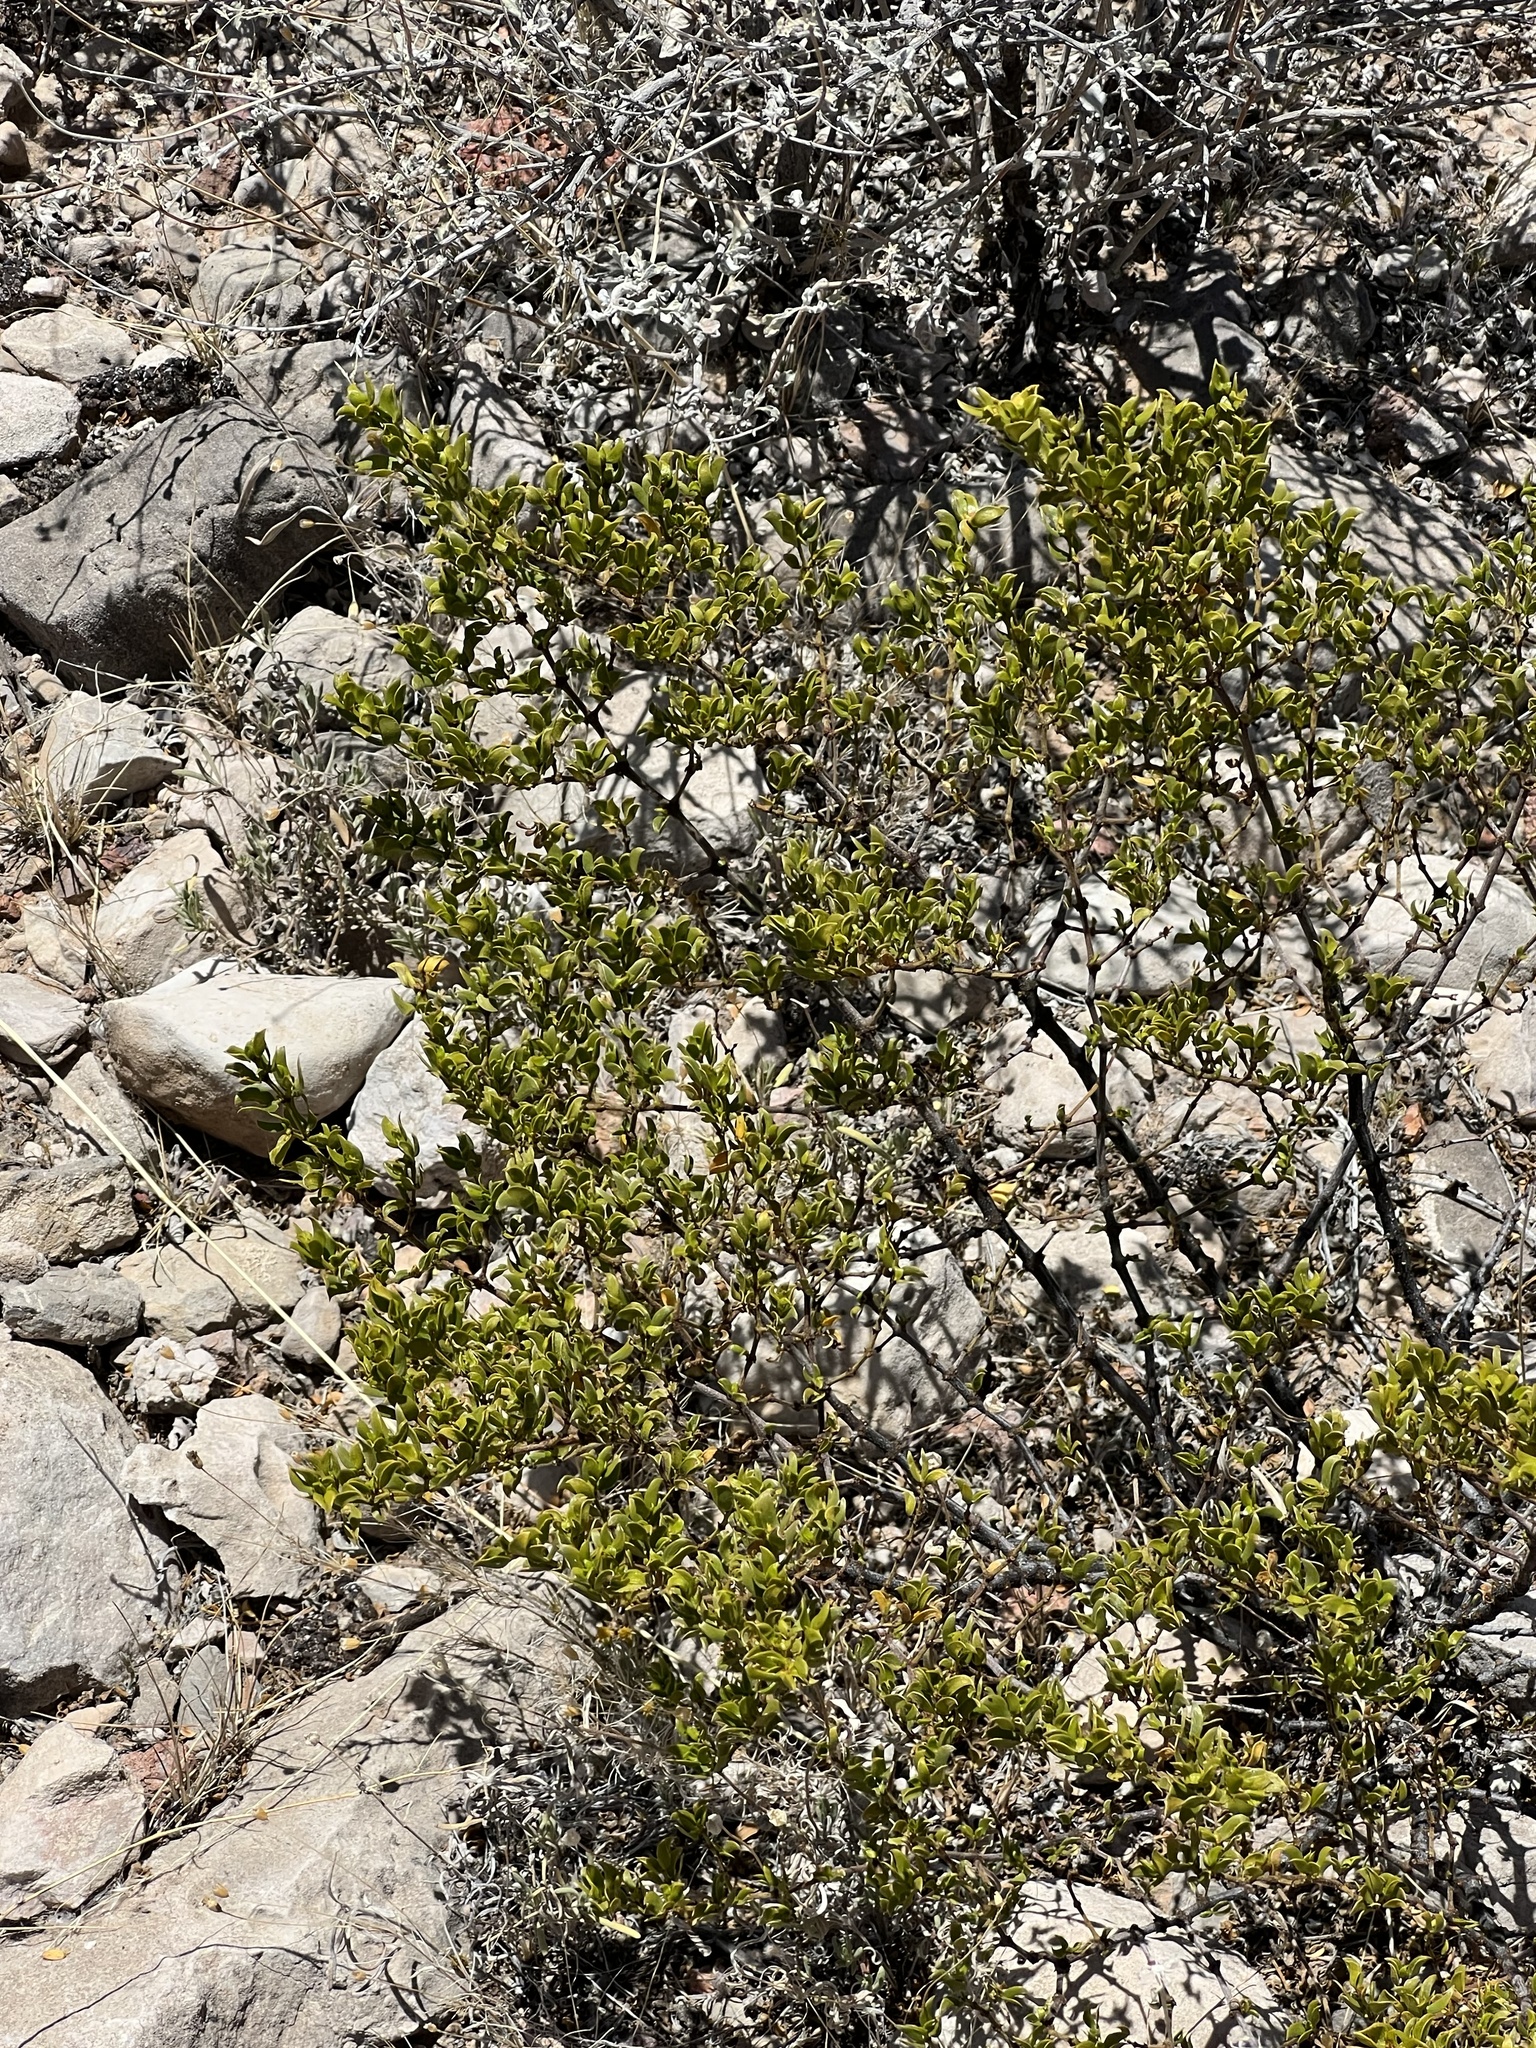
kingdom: Plantae
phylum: Tracheophyta
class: Magnoliopsida
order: Zygophyllales
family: Zygophyllaceae
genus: Larrea
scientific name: Larrea tridentata
